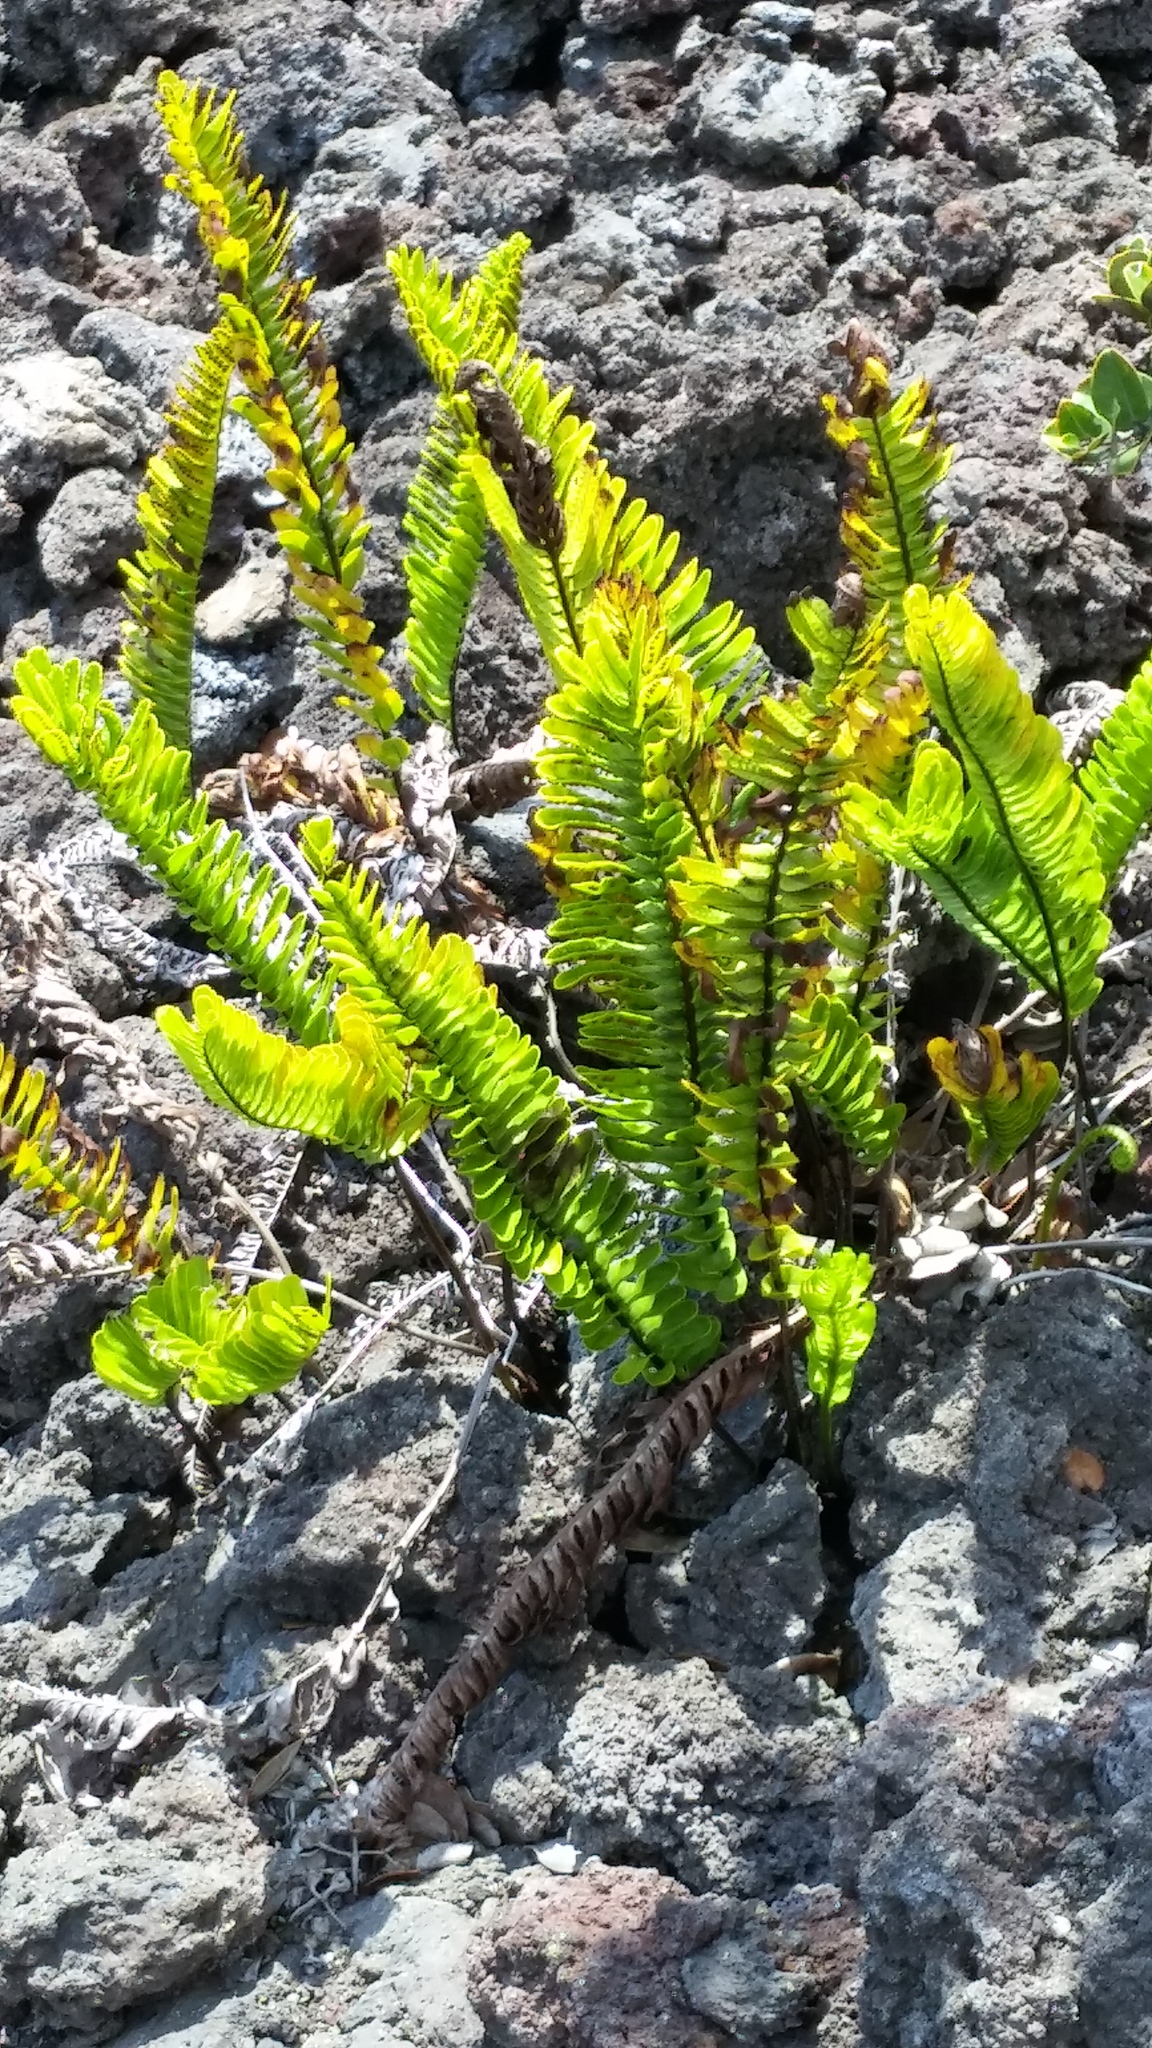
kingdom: Plantae
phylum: Tracheophyta
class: Polypodiopsida
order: Polypodiales
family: Polypodiaceae
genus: Polypodium
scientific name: Polypodium pellucidum
